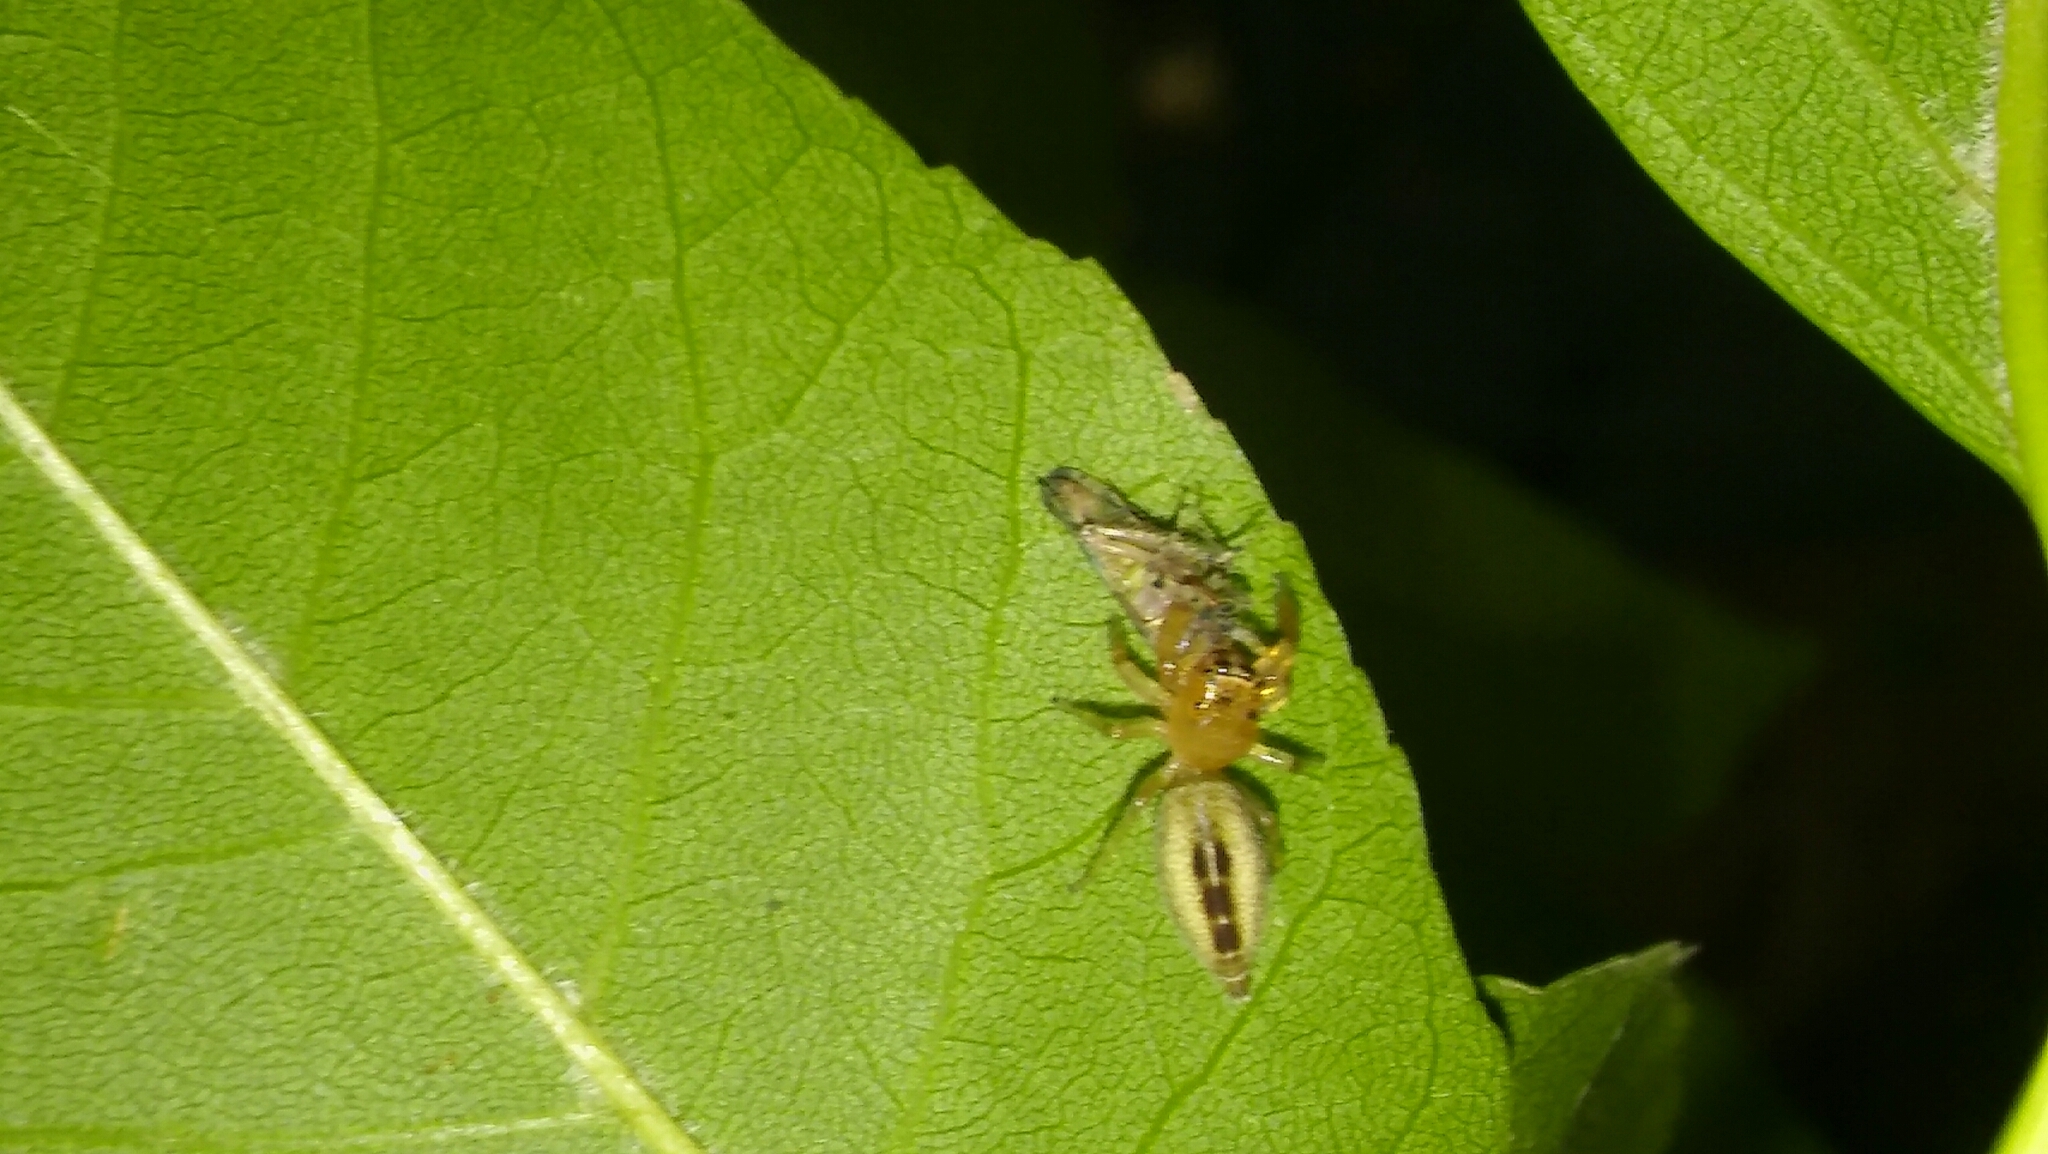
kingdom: Animalia
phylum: Arthropoda
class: Arachnida
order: Araneae
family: Salticidae
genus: Cotinusa
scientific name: Cotinusa vittata
